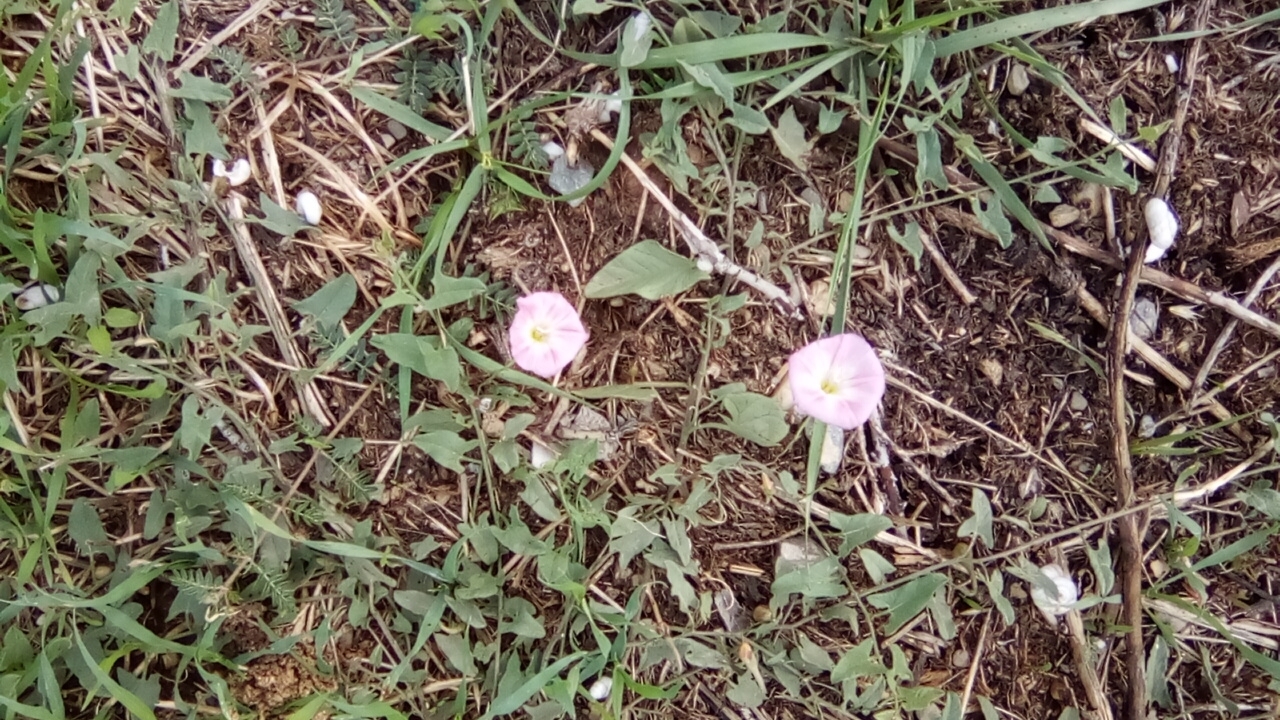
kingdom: Plantae
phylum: Tracheophyta
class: Magnoliopsida
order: Solanales
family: Convolvulaceae
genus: Convolvulus
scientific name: Convolvulus arvensis
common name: Field bindweed
